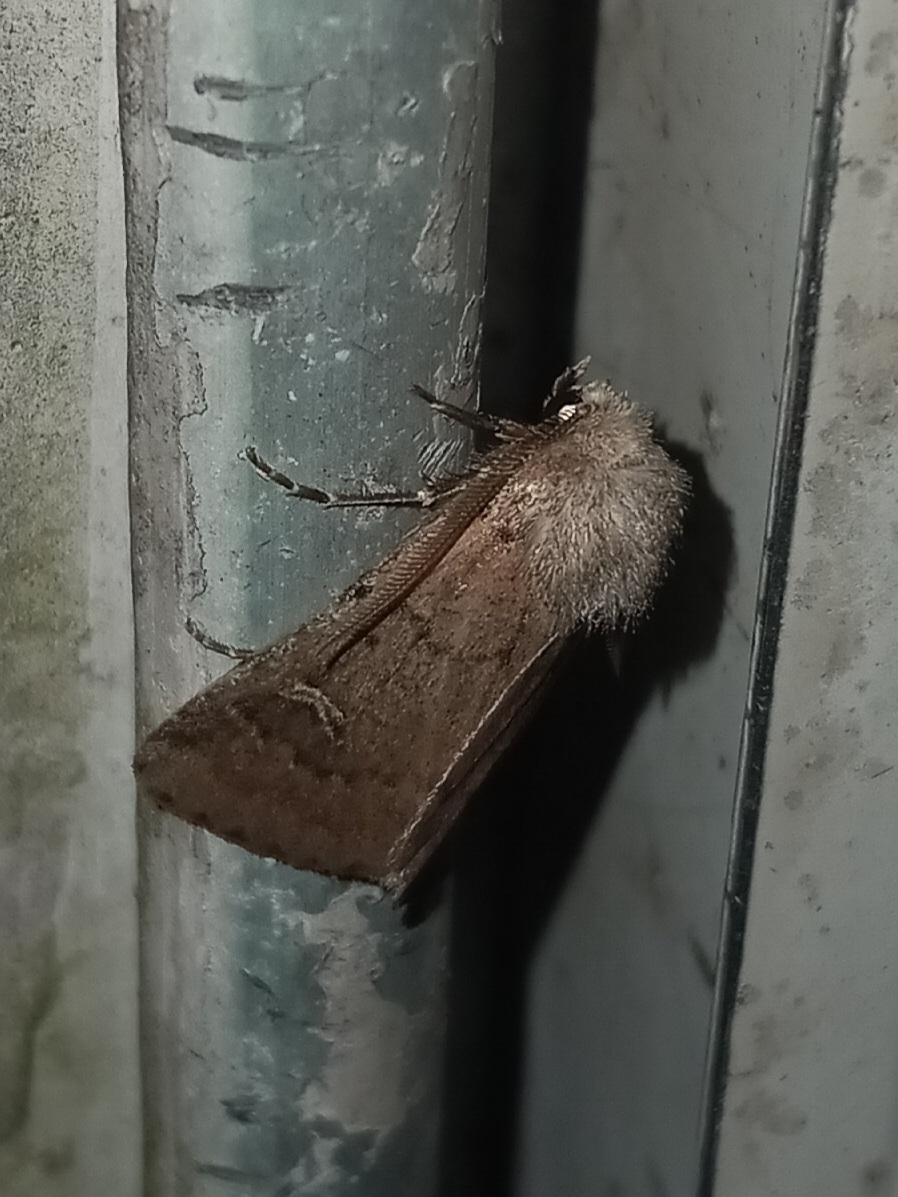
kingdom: Animalia
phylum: Arthropoda
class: Insecta
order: Lepidoptera
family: Noctuidae
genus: Eucoptocnemis
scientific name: Eucoptocnemis fimbriaris
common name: Fringed dart
